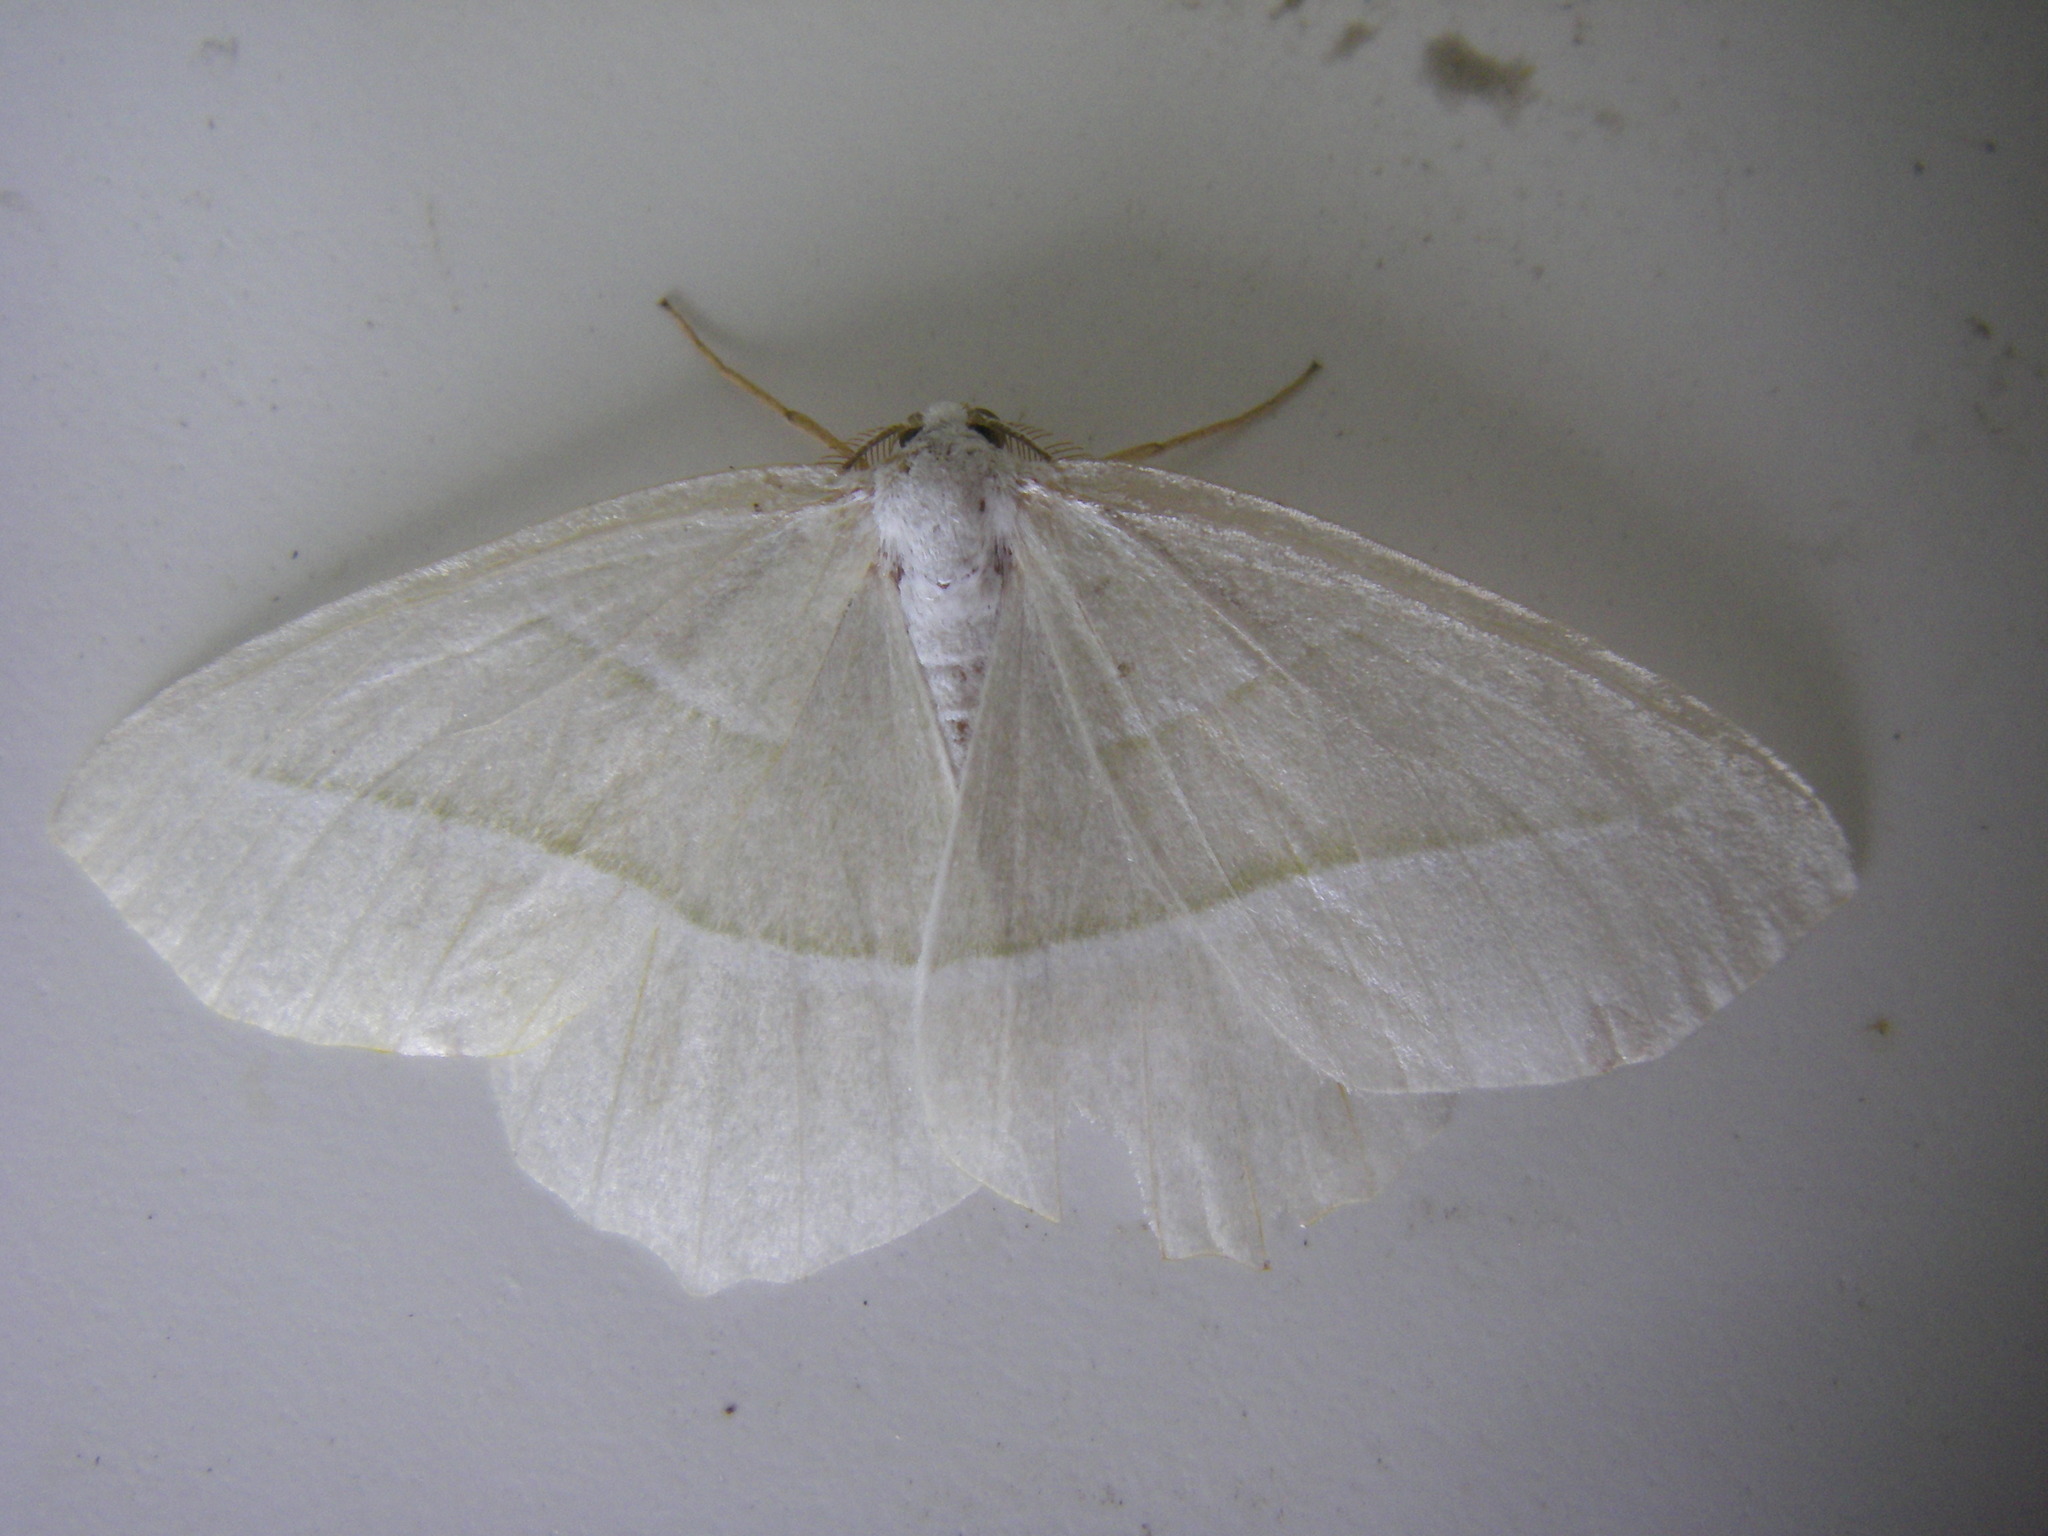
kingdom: Animalia
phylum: Arthropoda
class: Insecta
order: Lepidoptera
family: Geometridae
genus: Campaea
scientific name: Campaea margaritaria
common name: Light emerald
